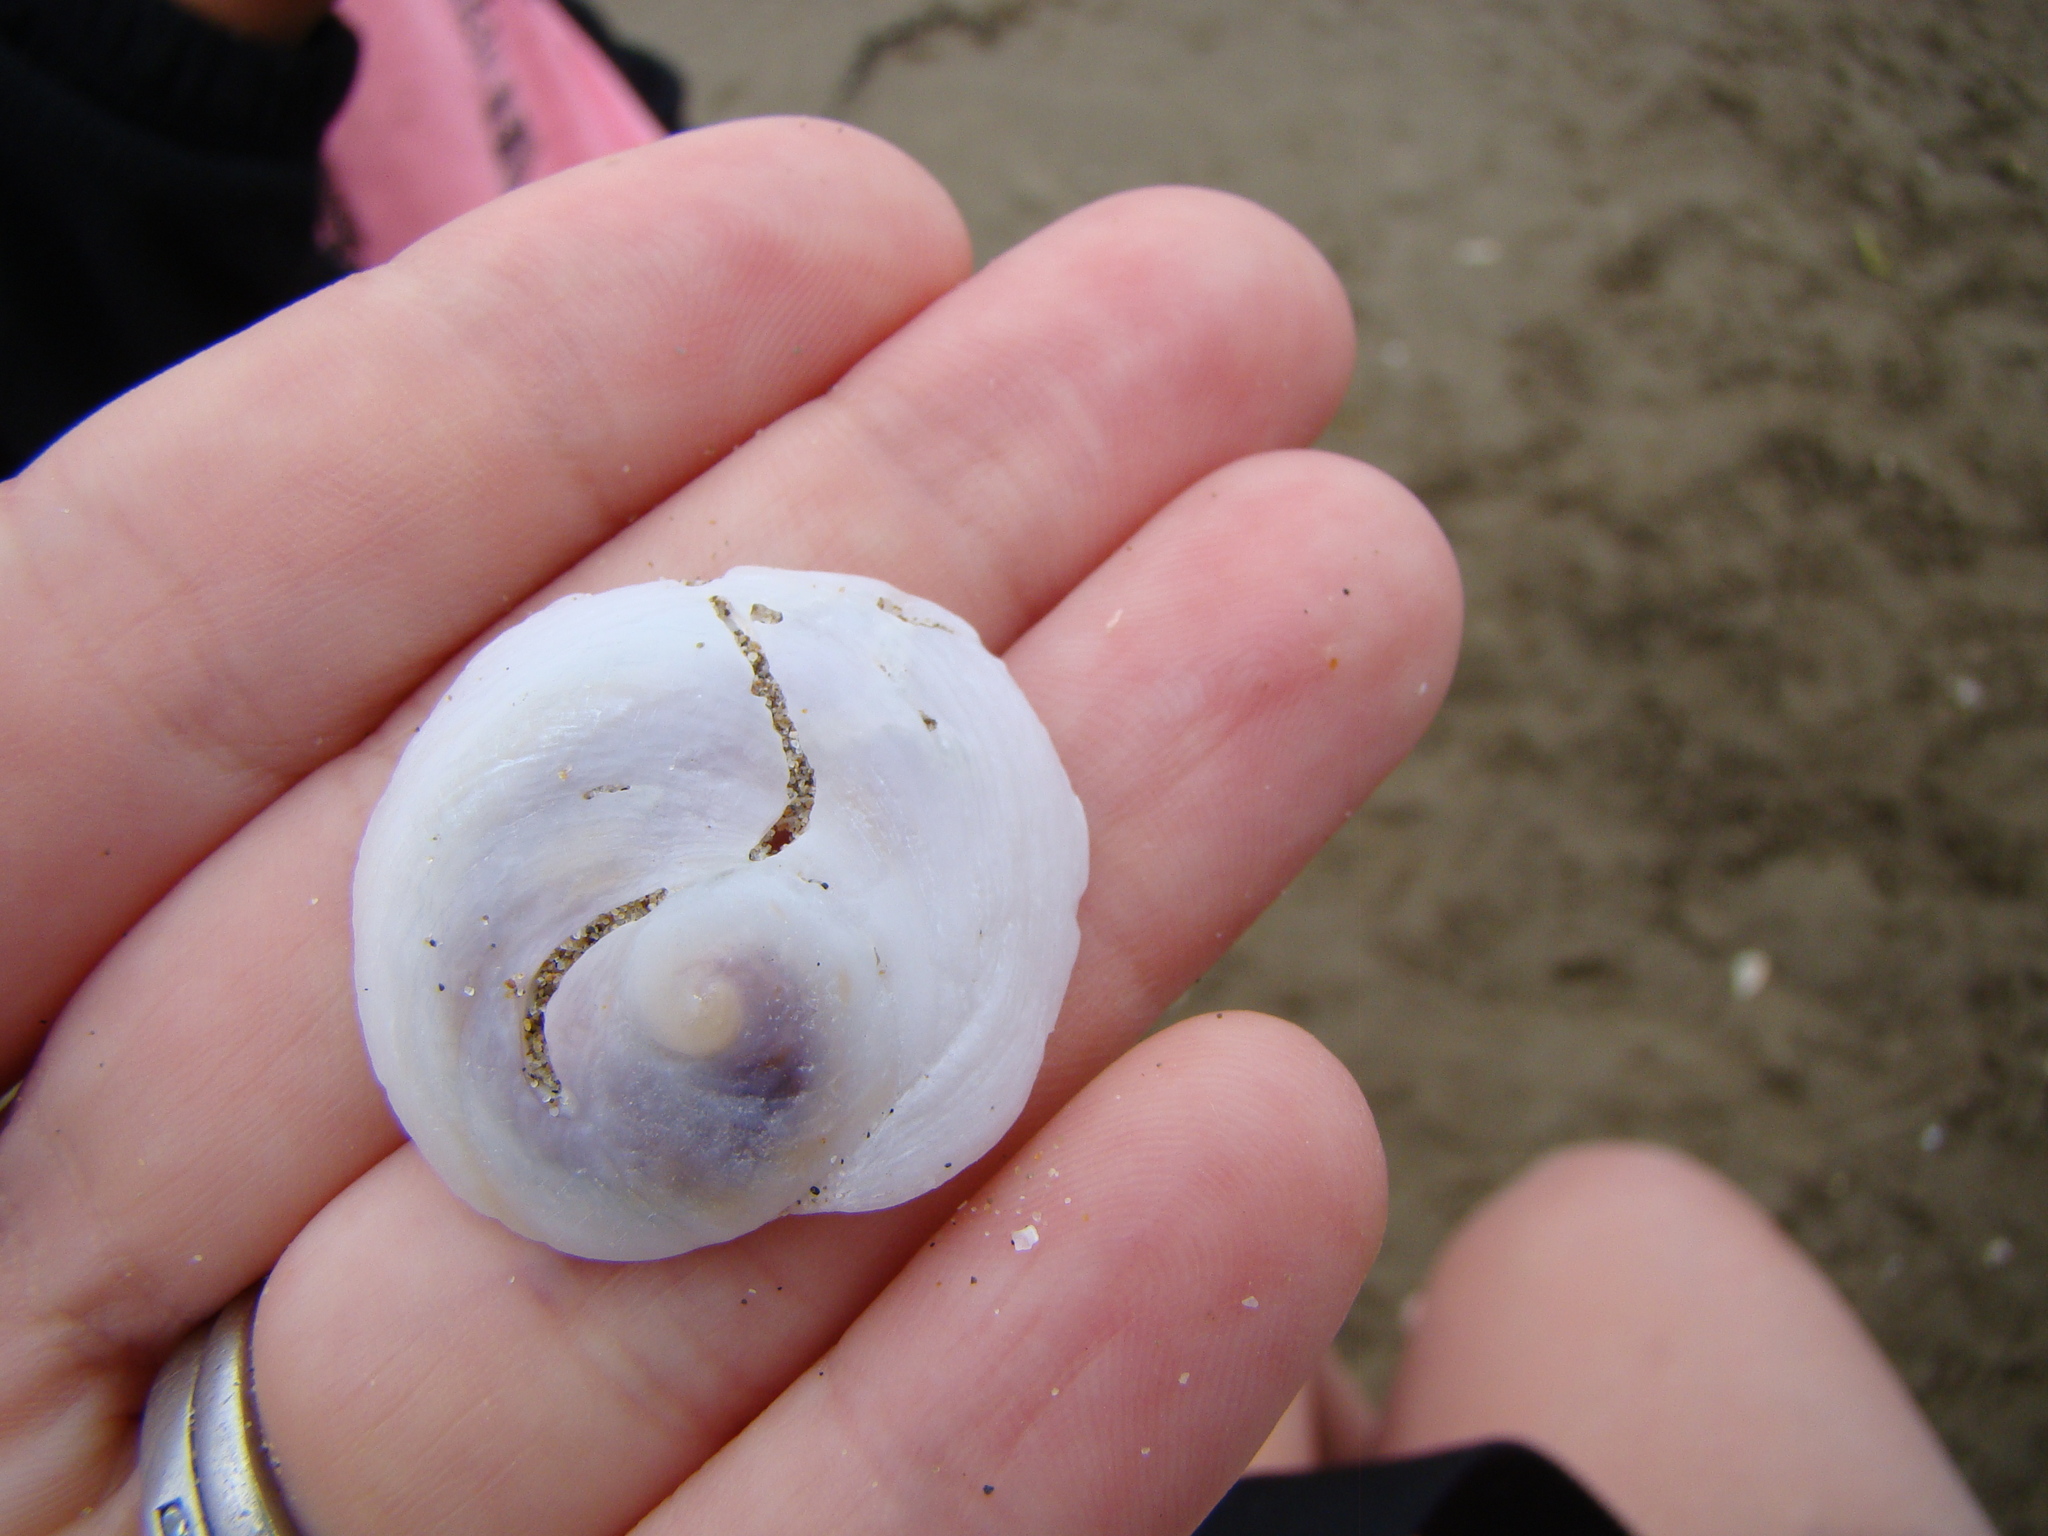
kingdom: Animalia
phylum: Mollusca
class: Gastropoda
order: Littorinimorpha
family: Calyptraeidae
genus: Sigapatella
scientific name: Sigapatella novaezelandiae
